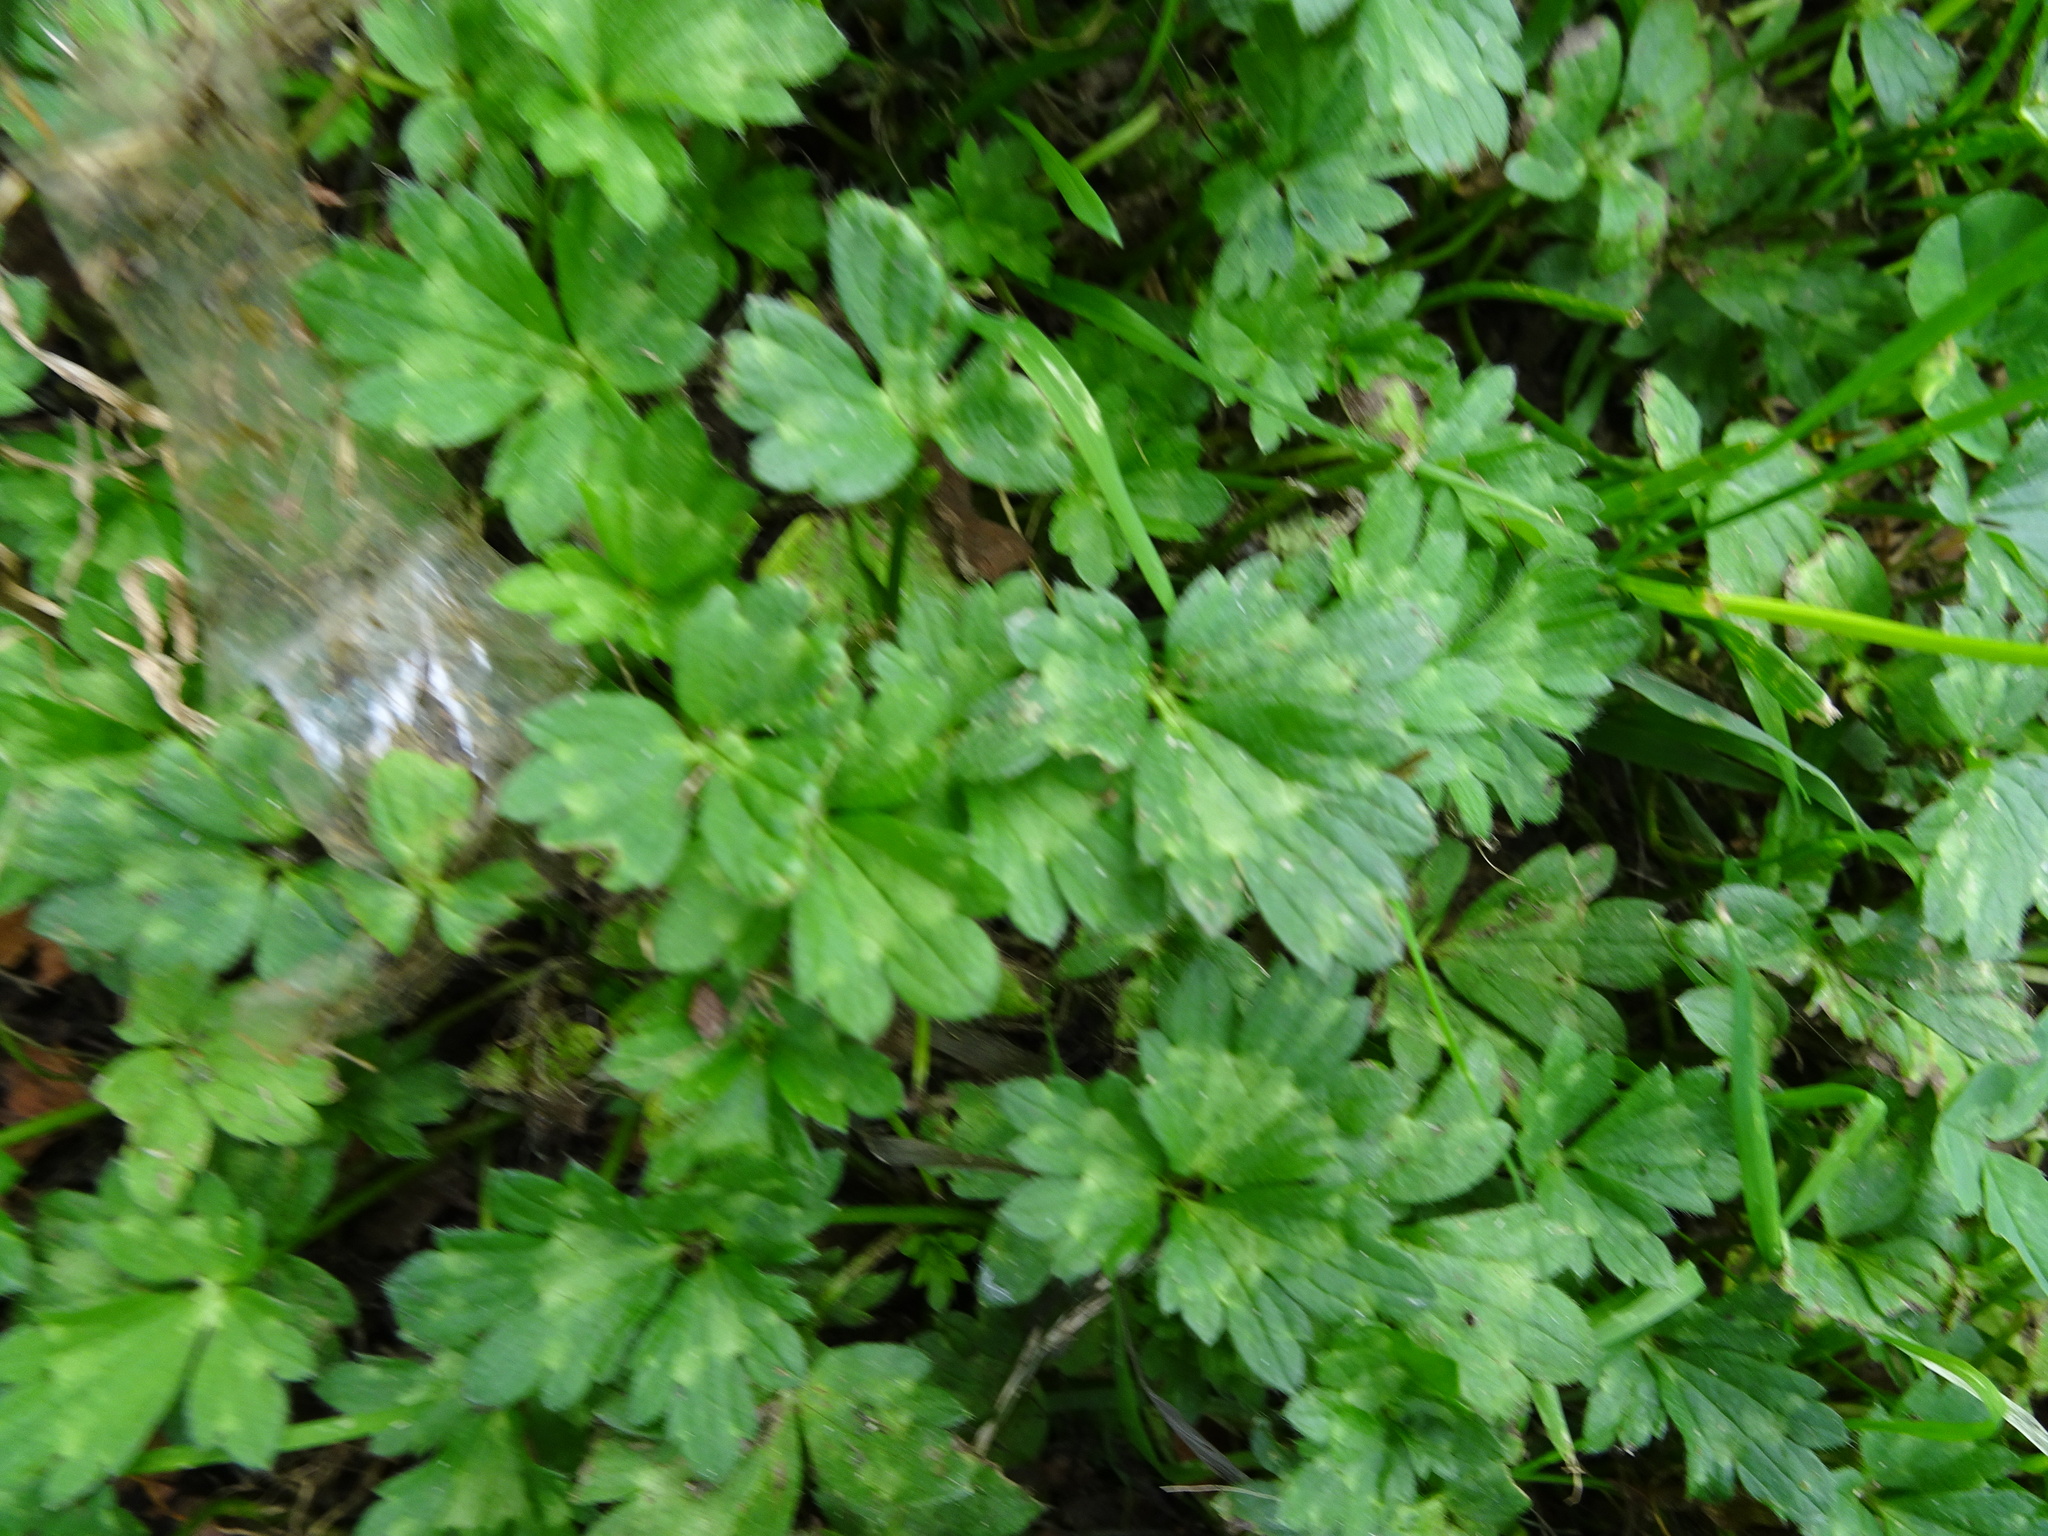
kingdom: Plantae
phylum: Tracheophyta
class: Magnoliopsida
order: Ranunculales
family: Ranunculaceae
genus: Ranunculus
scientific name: Ranunculus repens
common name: Creeping buttercup
